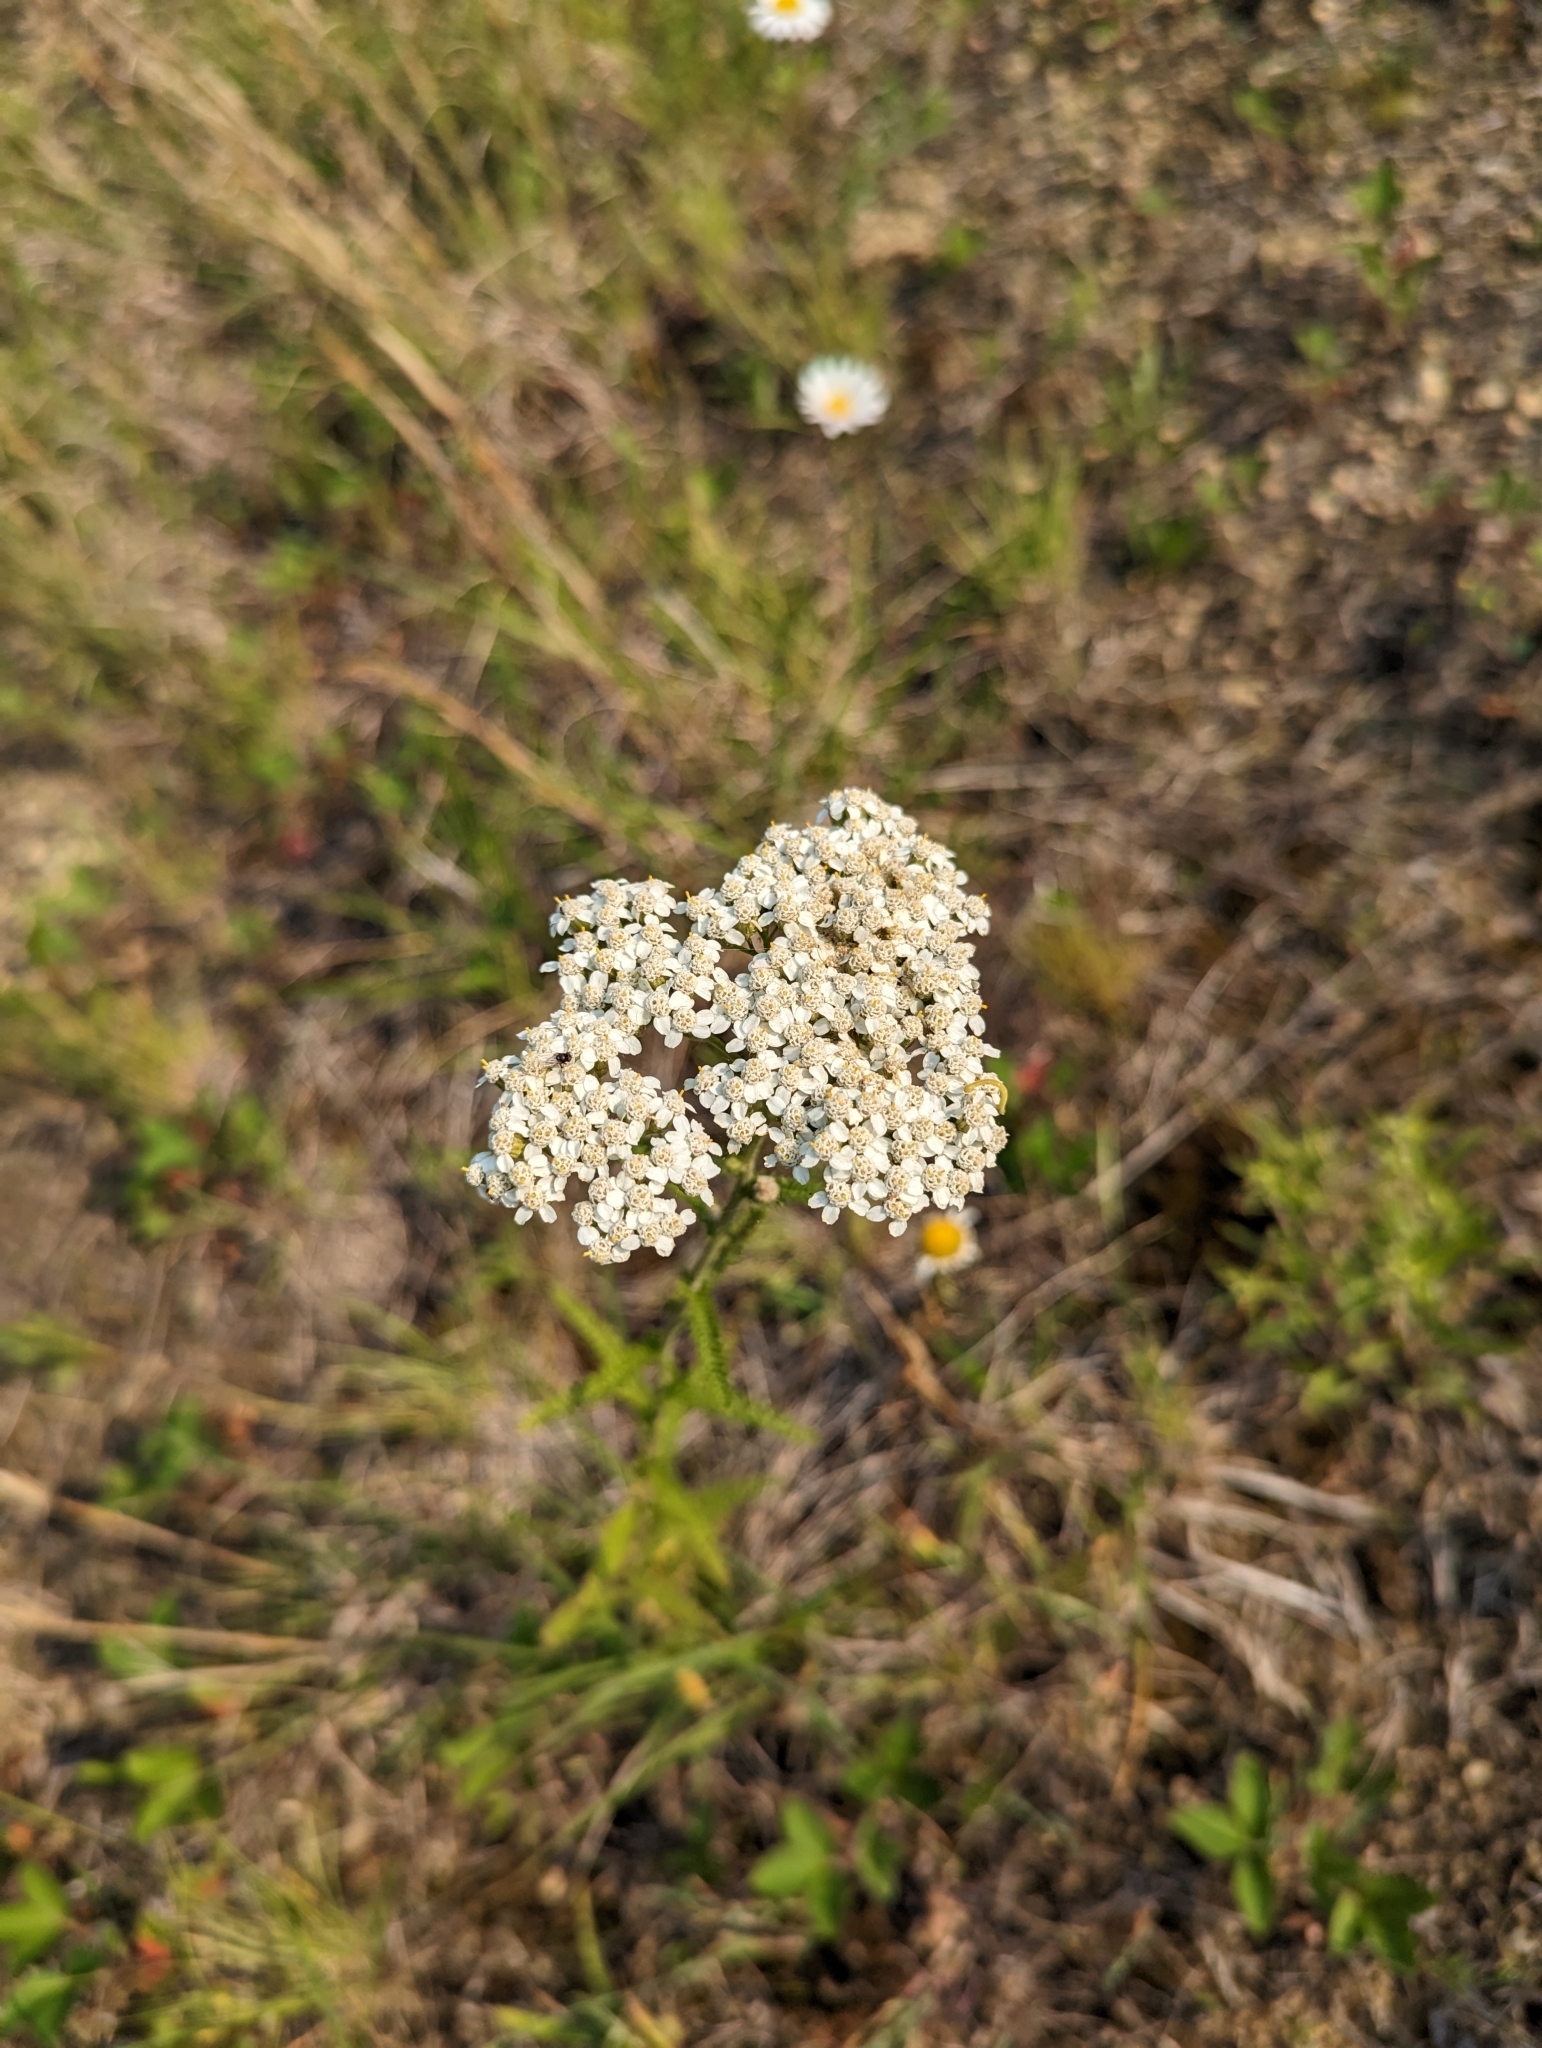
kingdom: Plantae
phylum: Tracheophyta
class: Magnoliopsida
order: Asterales
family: Asteraceae
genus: Achillea
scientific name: Achillea millefolium
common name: Yarrow
